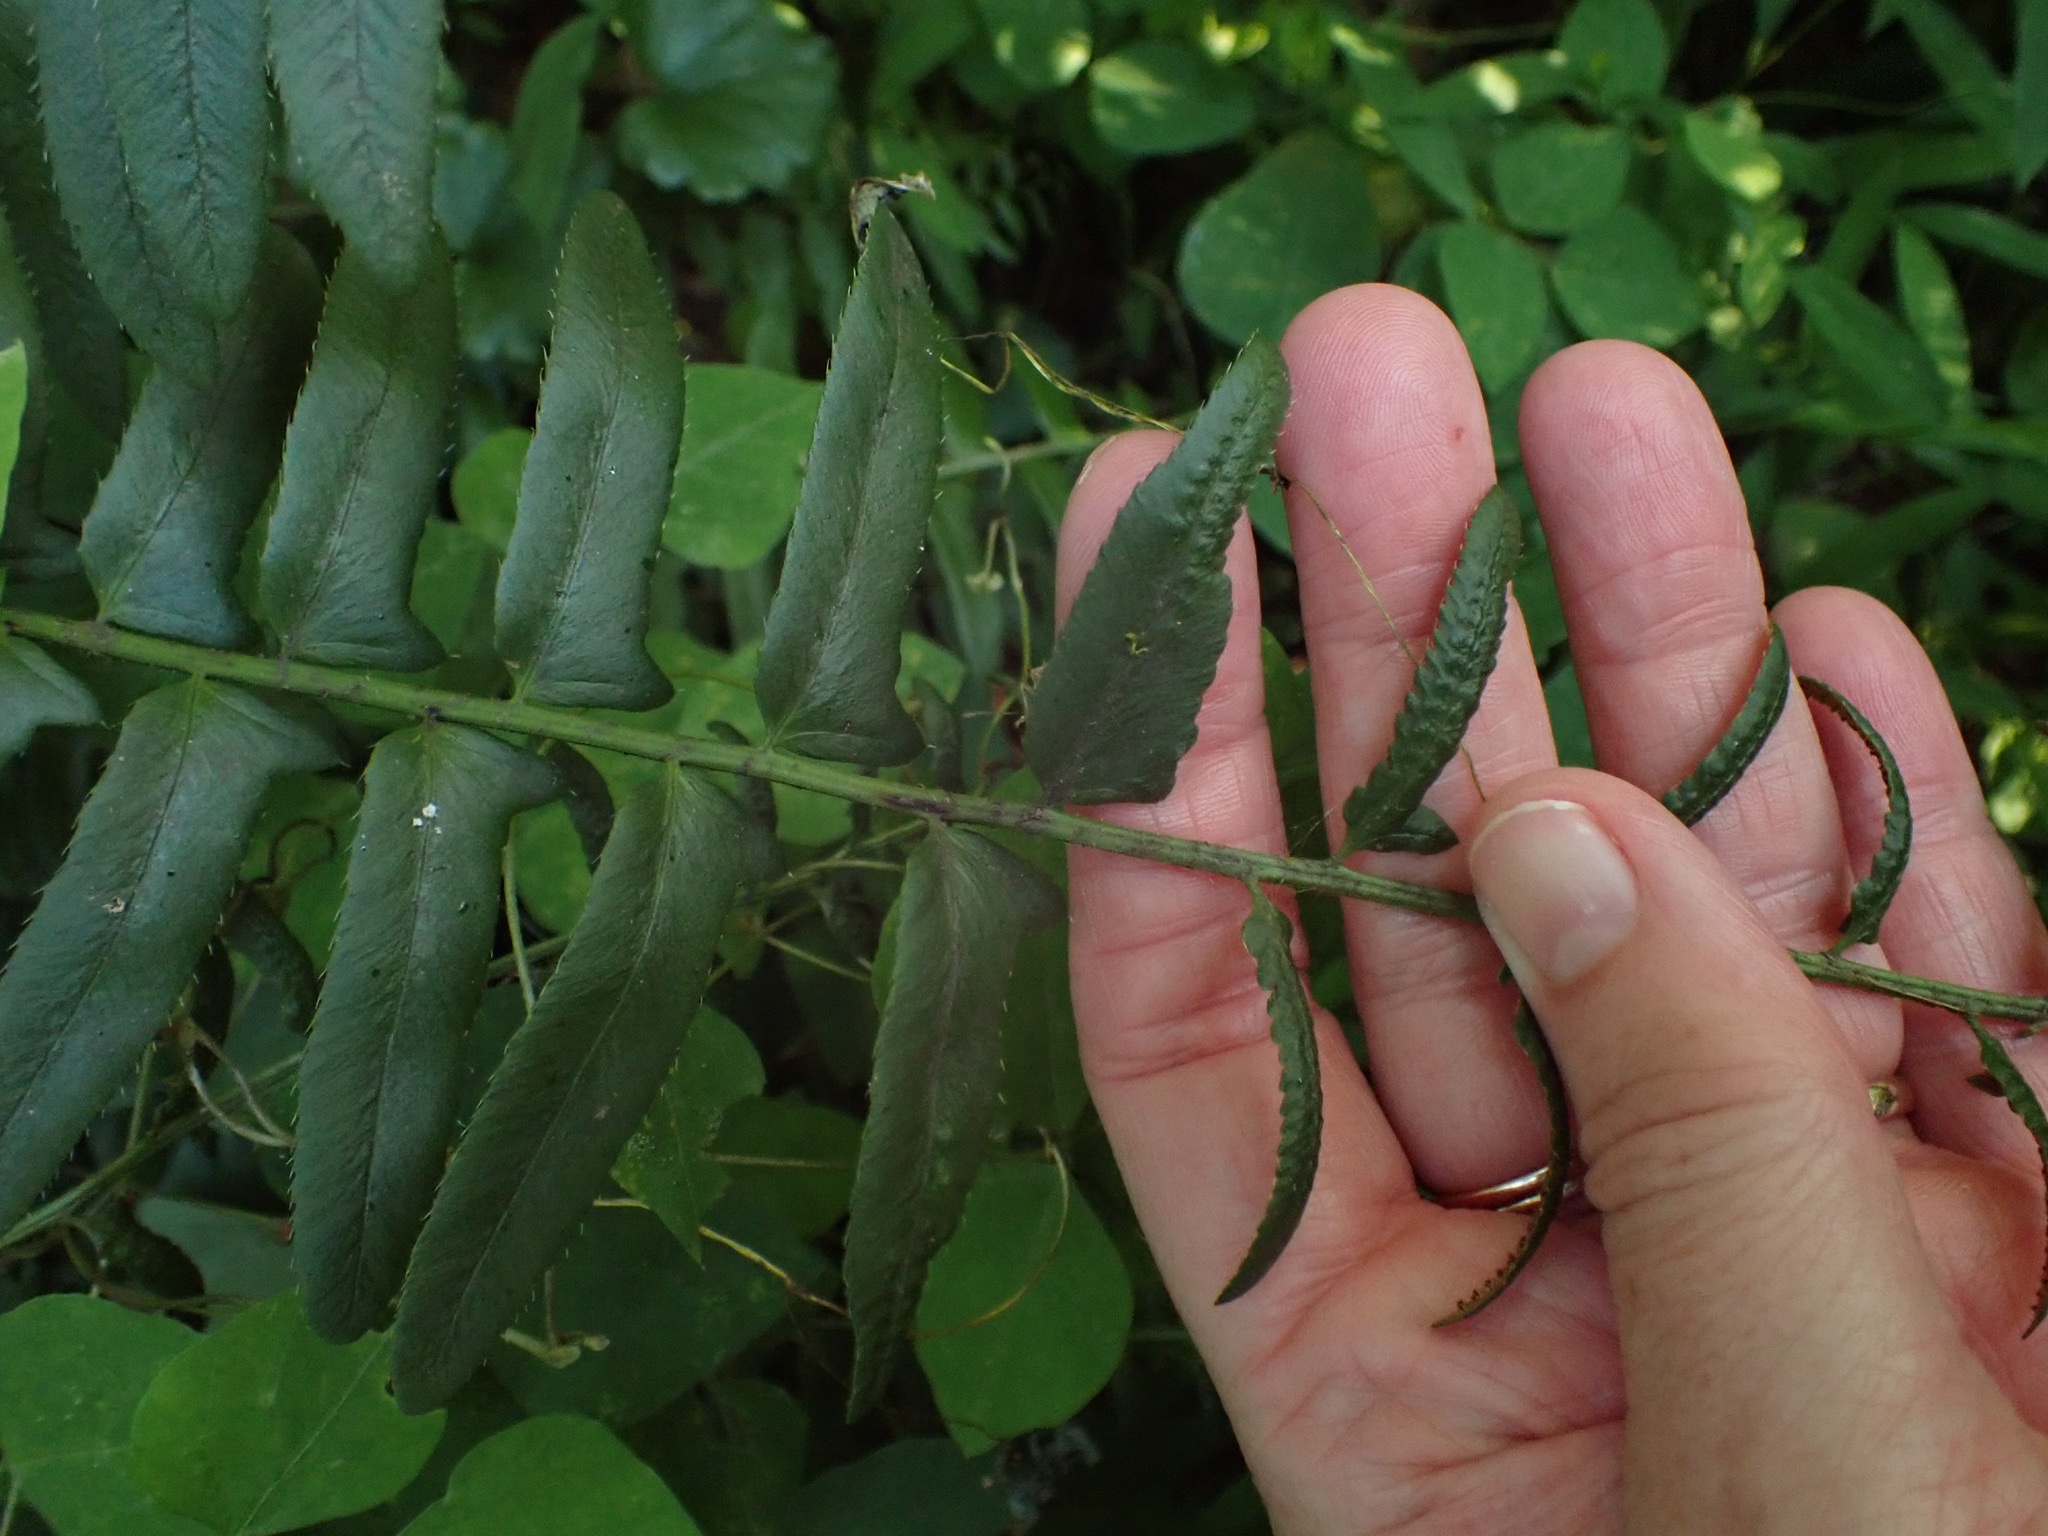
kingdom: Plantae
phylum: Tracheophyta
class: Polypodiopsida
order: Polypodiales
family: Dryopteridaceae
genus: Polystichum
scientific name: Polystichum acrostichoides
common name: Christmas fern
